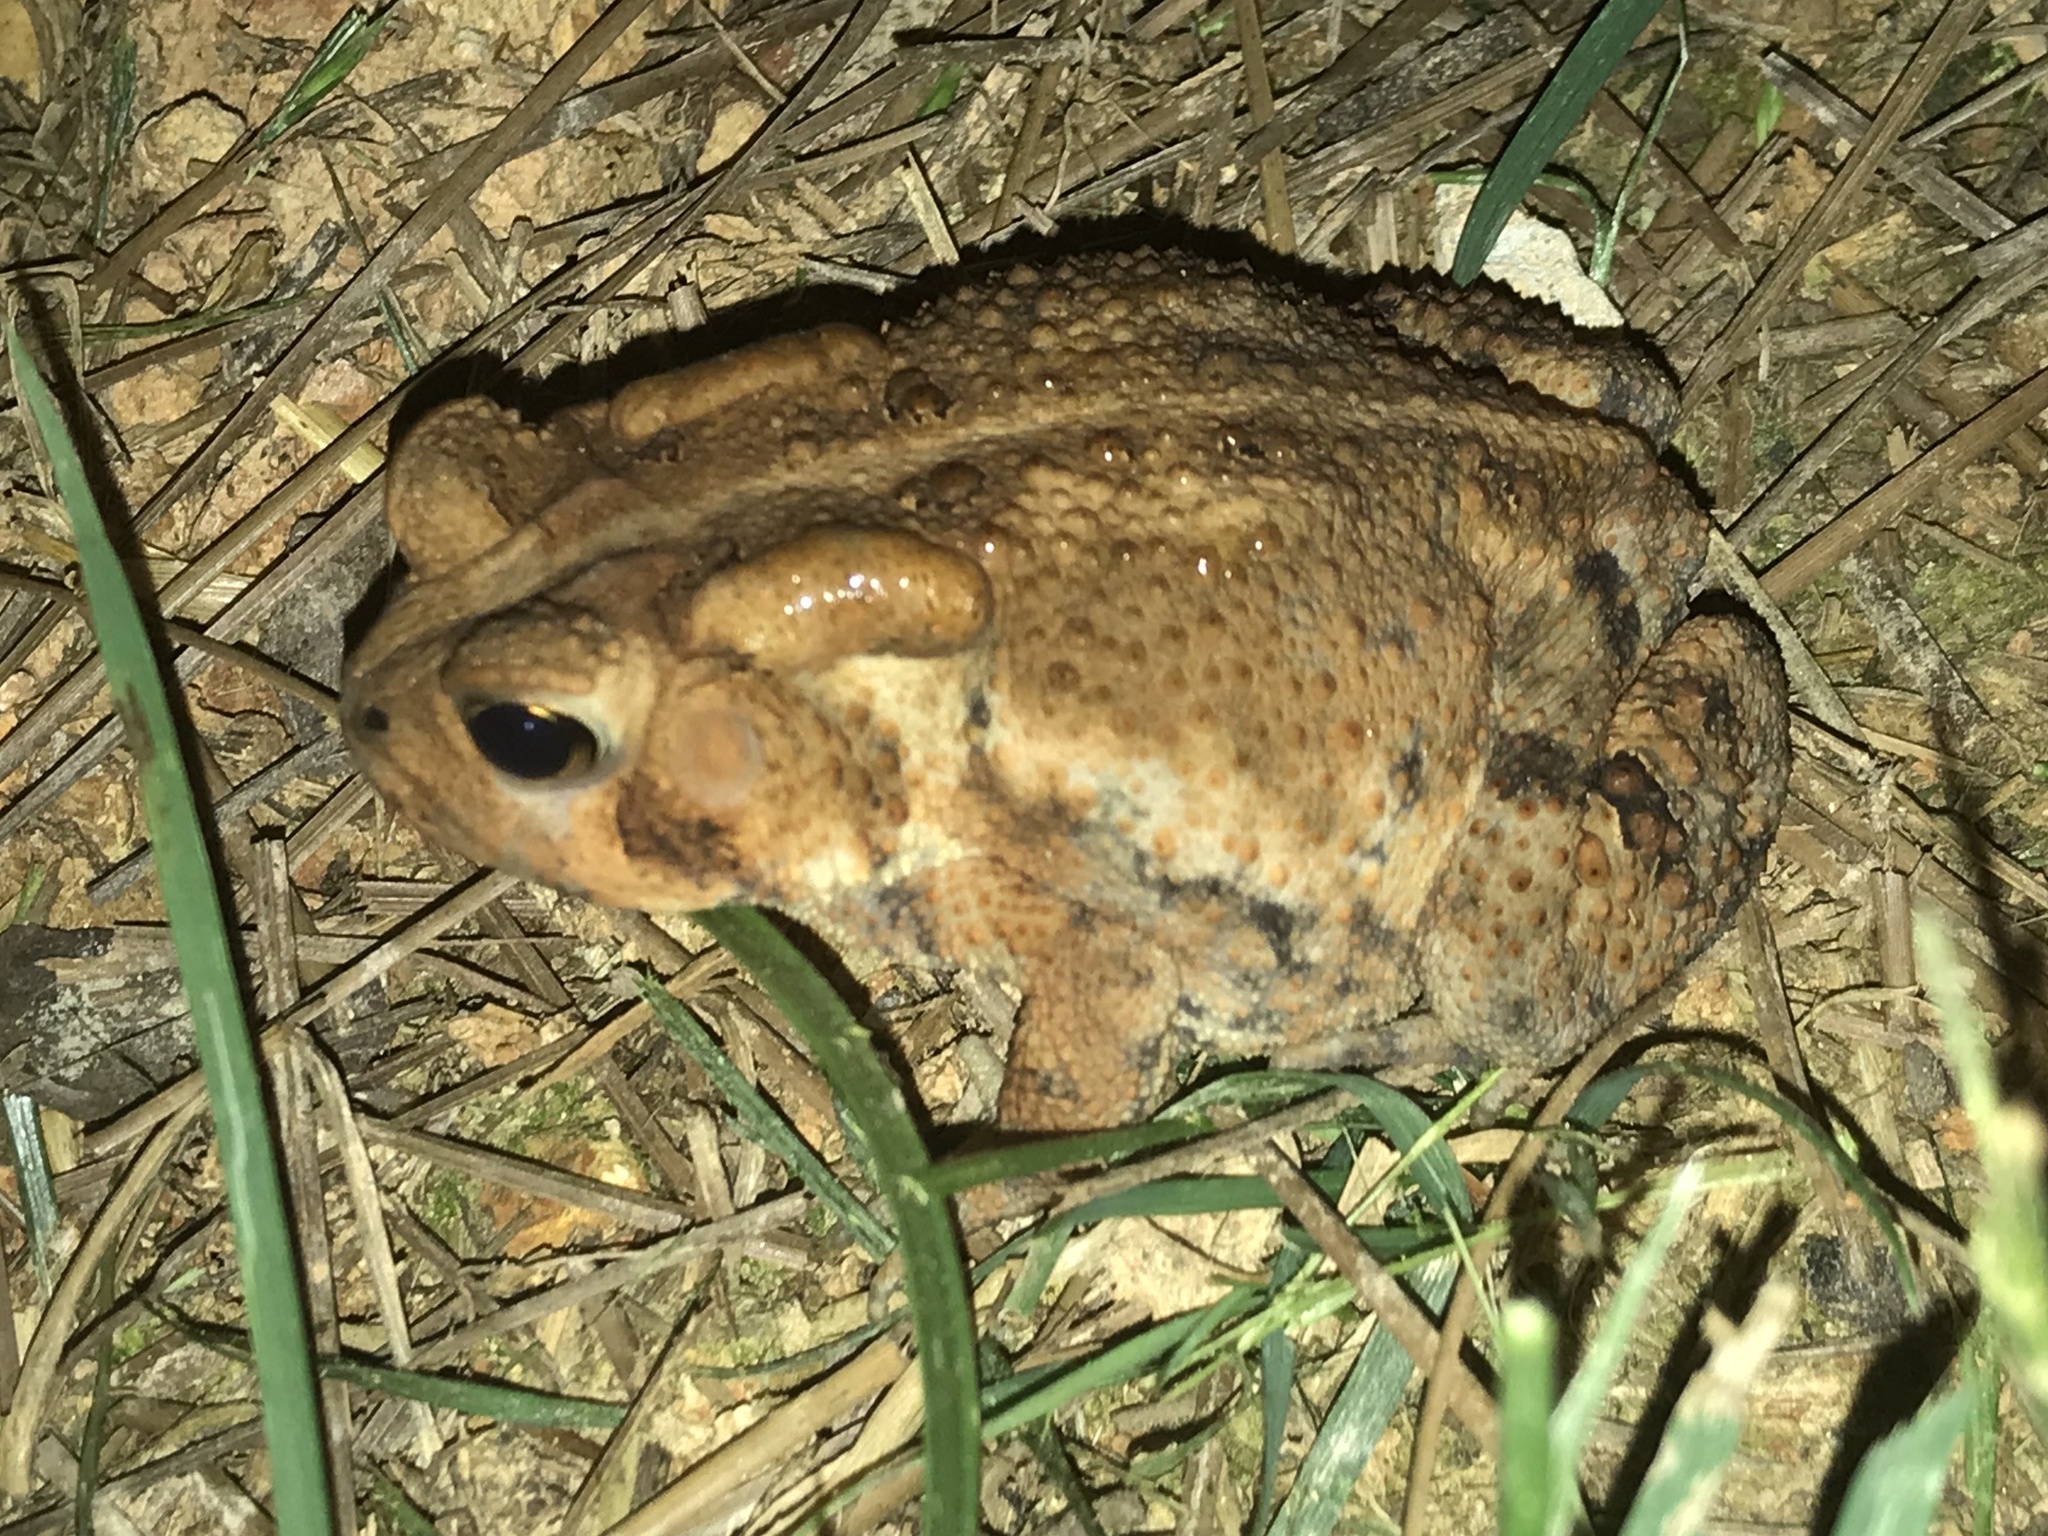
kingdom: Animalia
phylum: Chordata
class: Amphibia
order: Anura
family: Bufonidae
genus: Anaxyrus
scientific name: Anaxyrus americanus
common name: American toad
